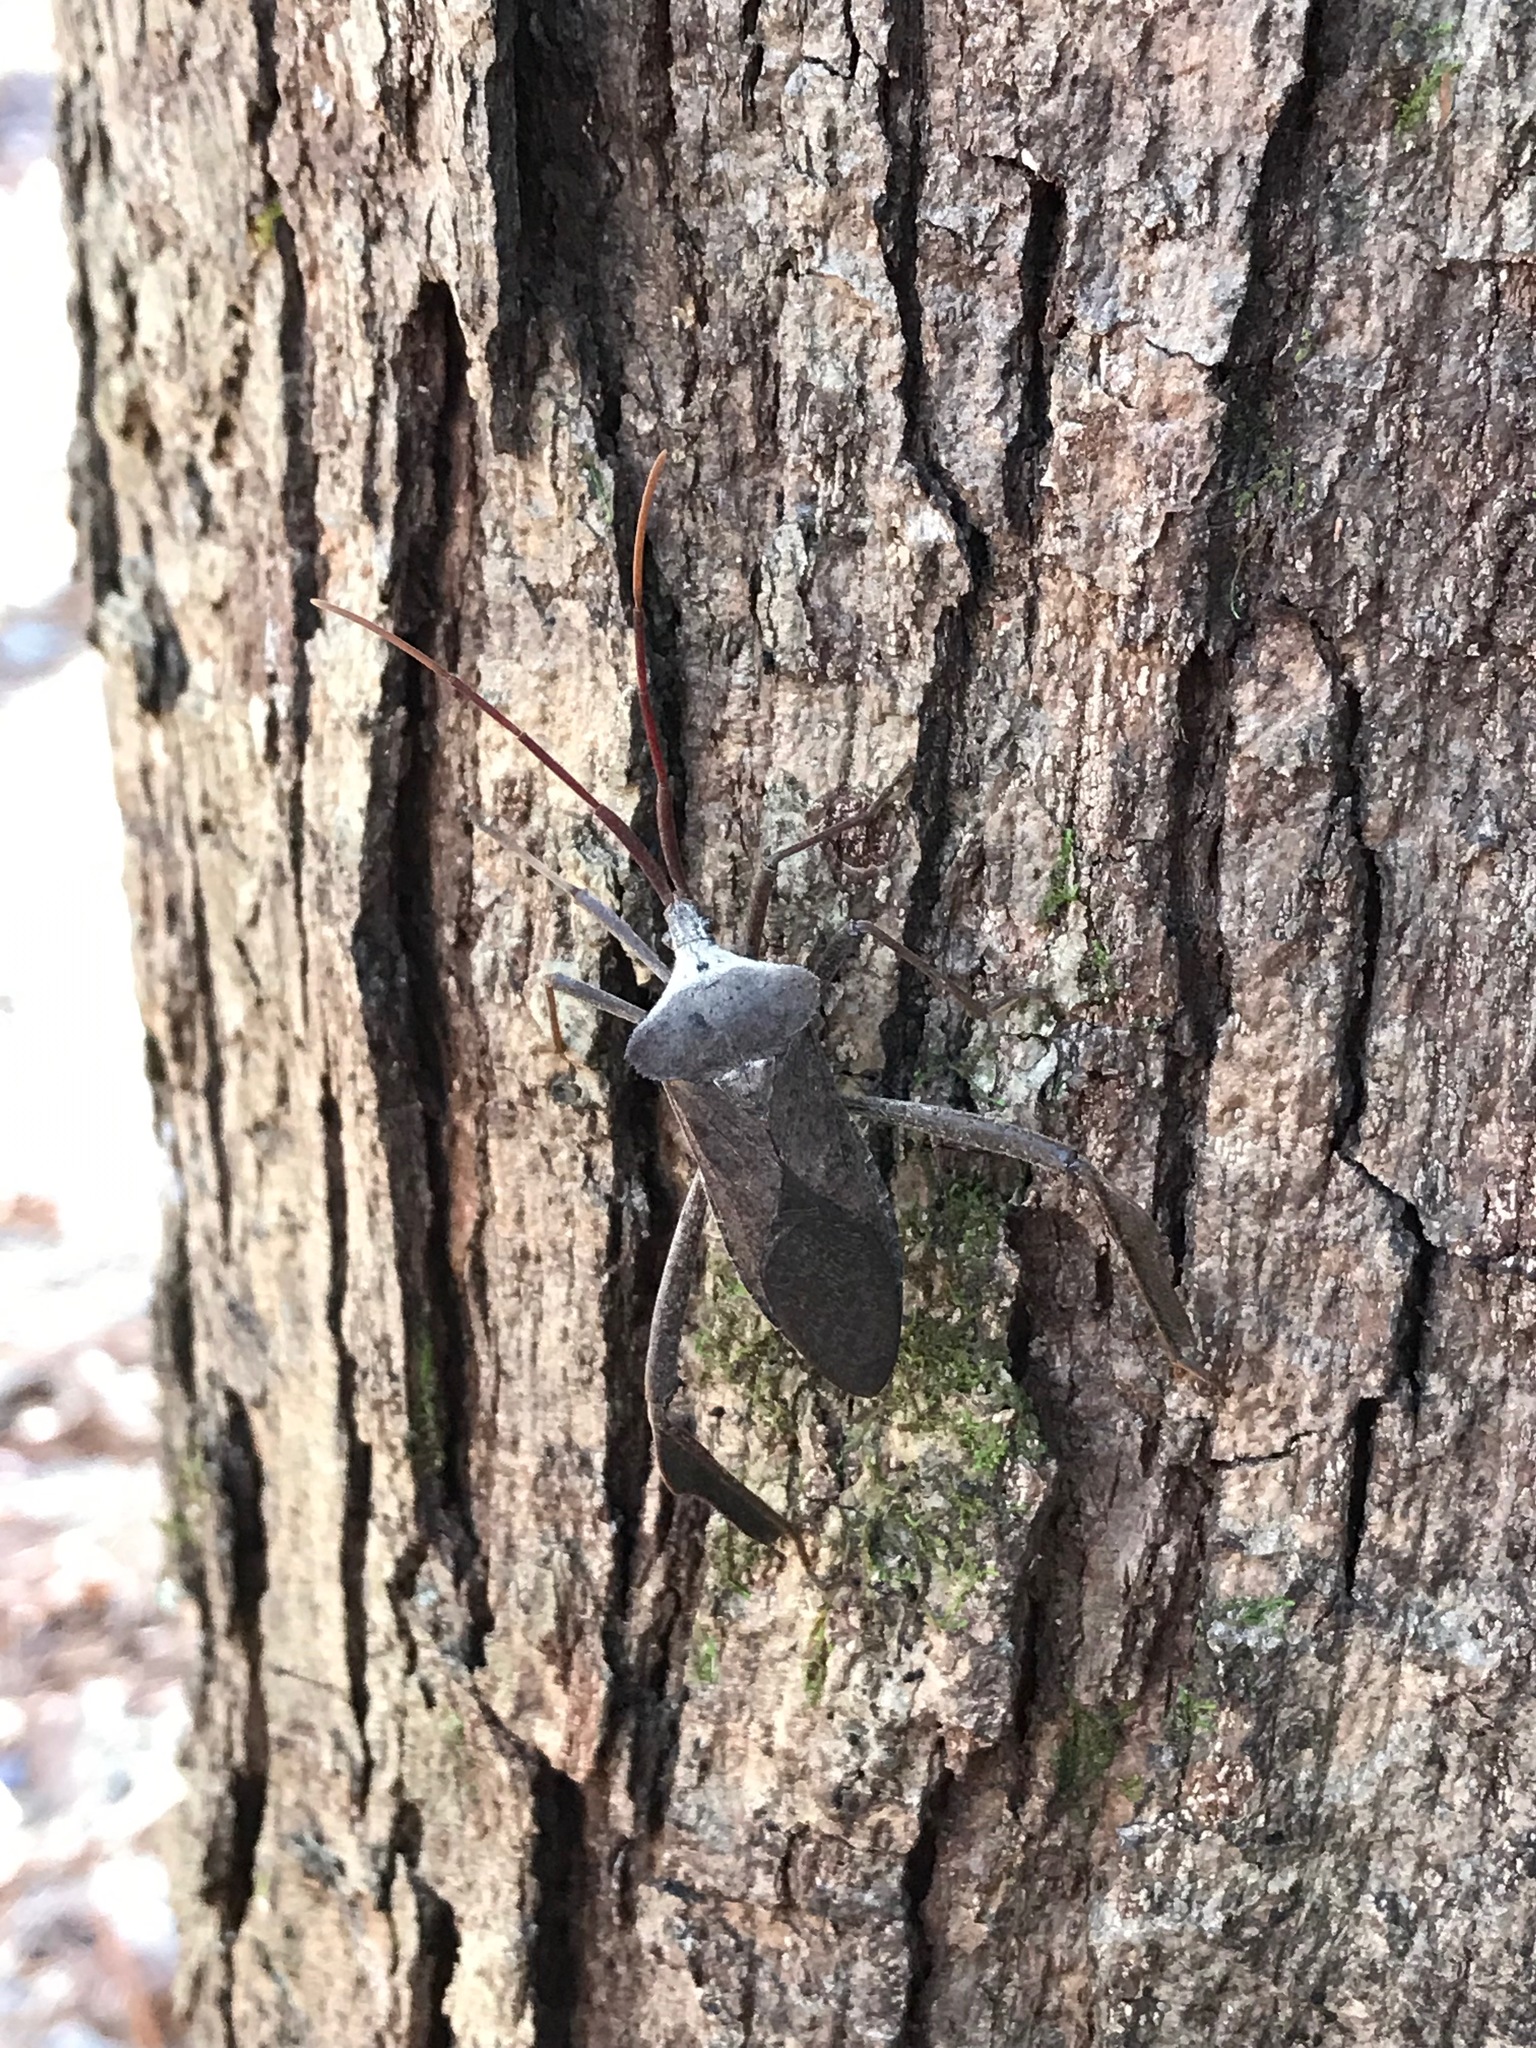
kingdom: Animalia
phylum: Arthropoda
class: Insecta
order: Hemiptera
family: Coreidae
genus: Acanthocephala
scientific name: Acanthocephala declivis
